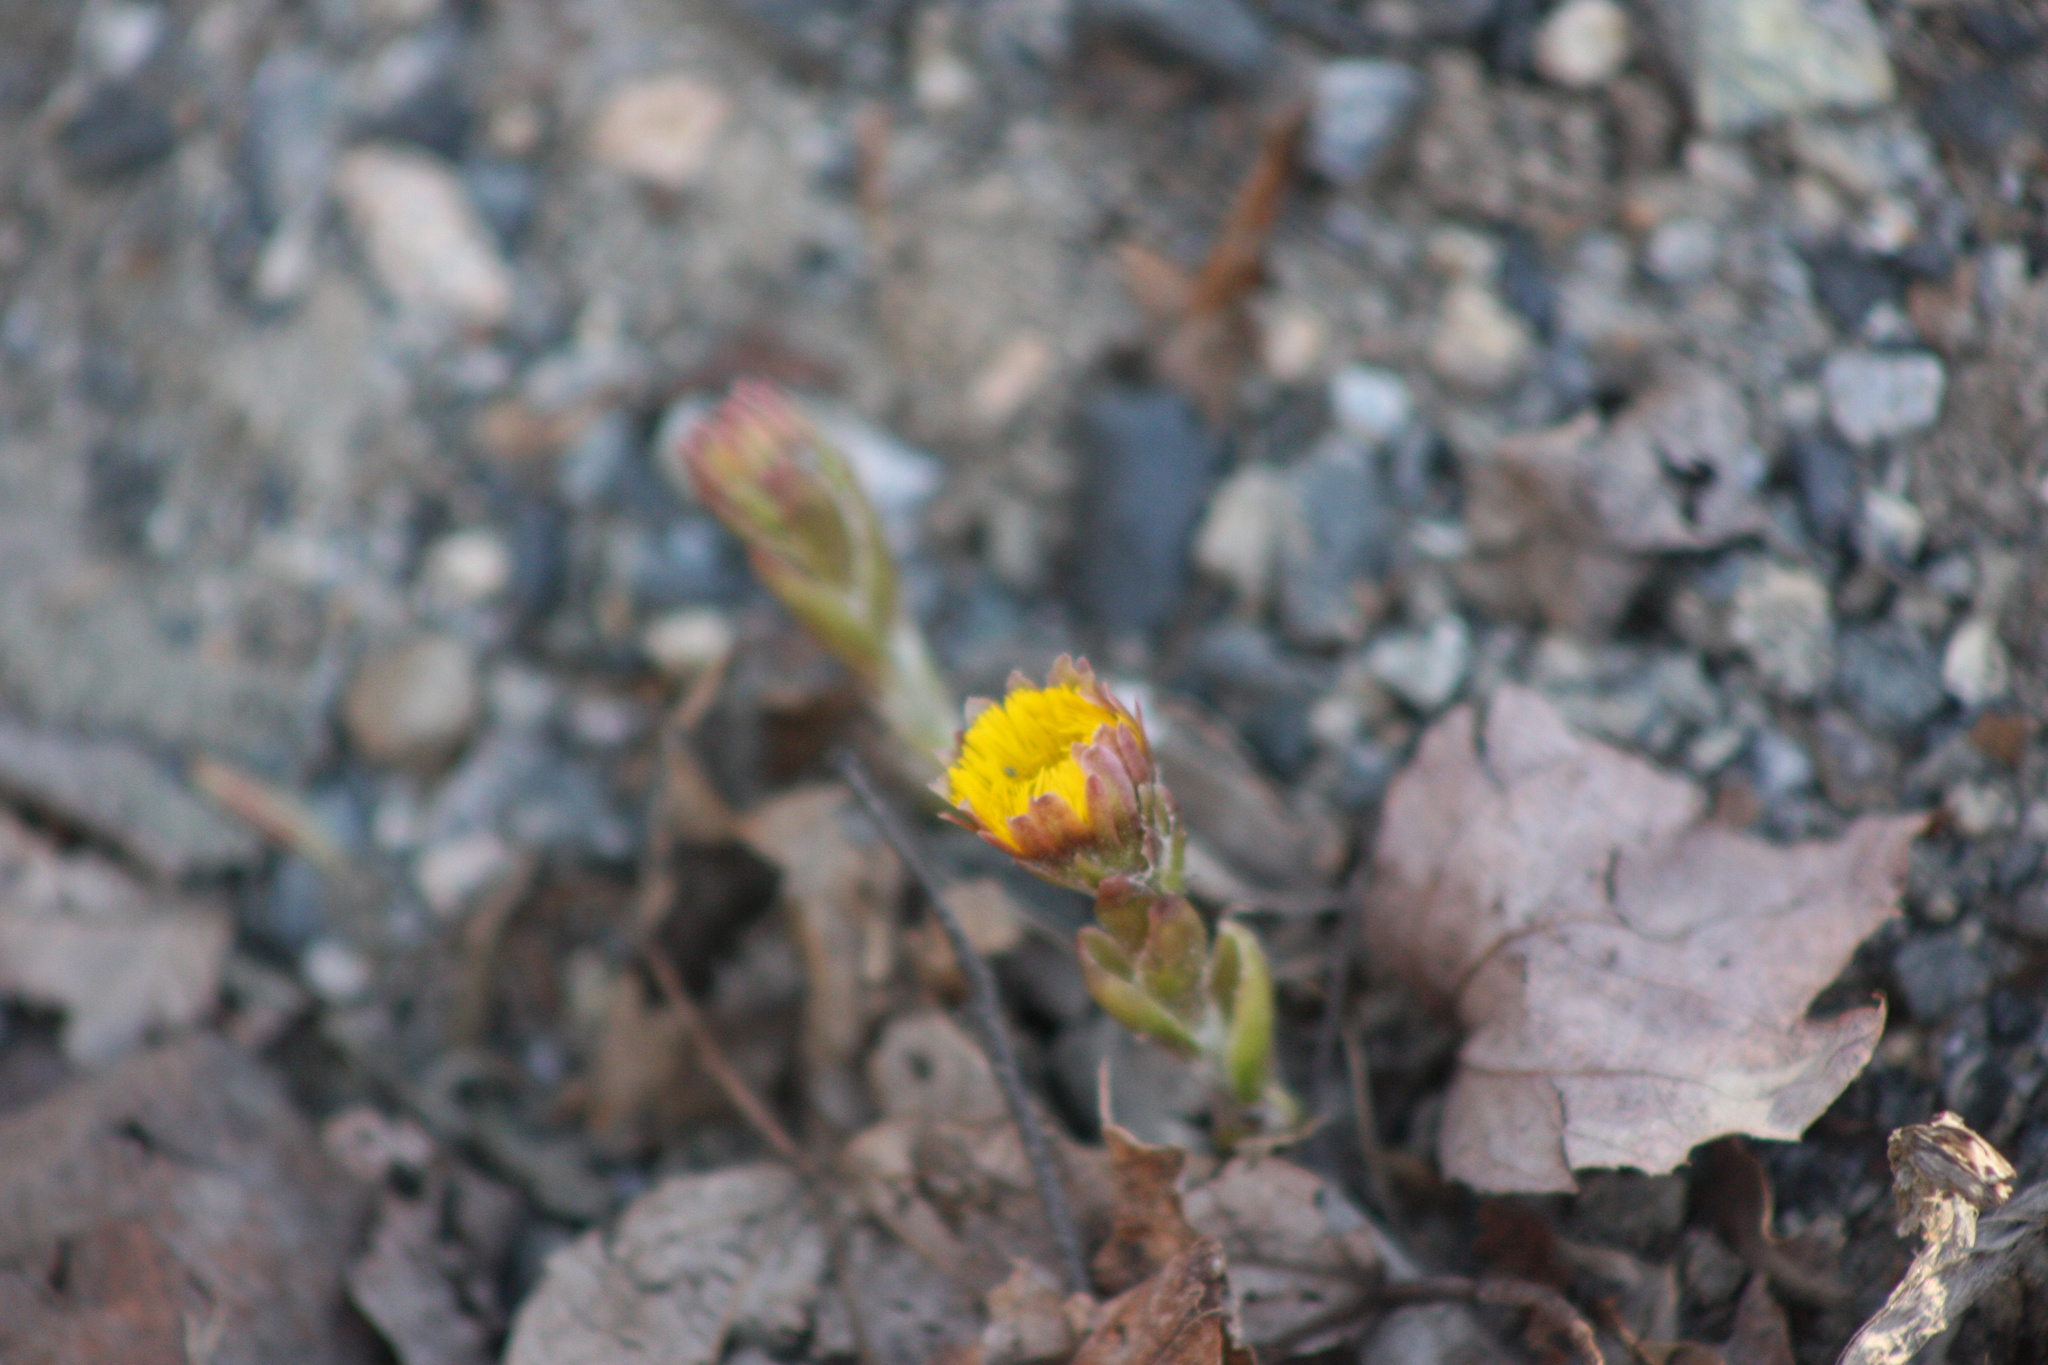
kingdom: Plantae
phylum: Tracheophyta
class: Magnoliopsida
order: Asterales
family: Asteraceae
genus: Tussilago
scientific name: Tussilago farfara
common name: Coltsfoot
